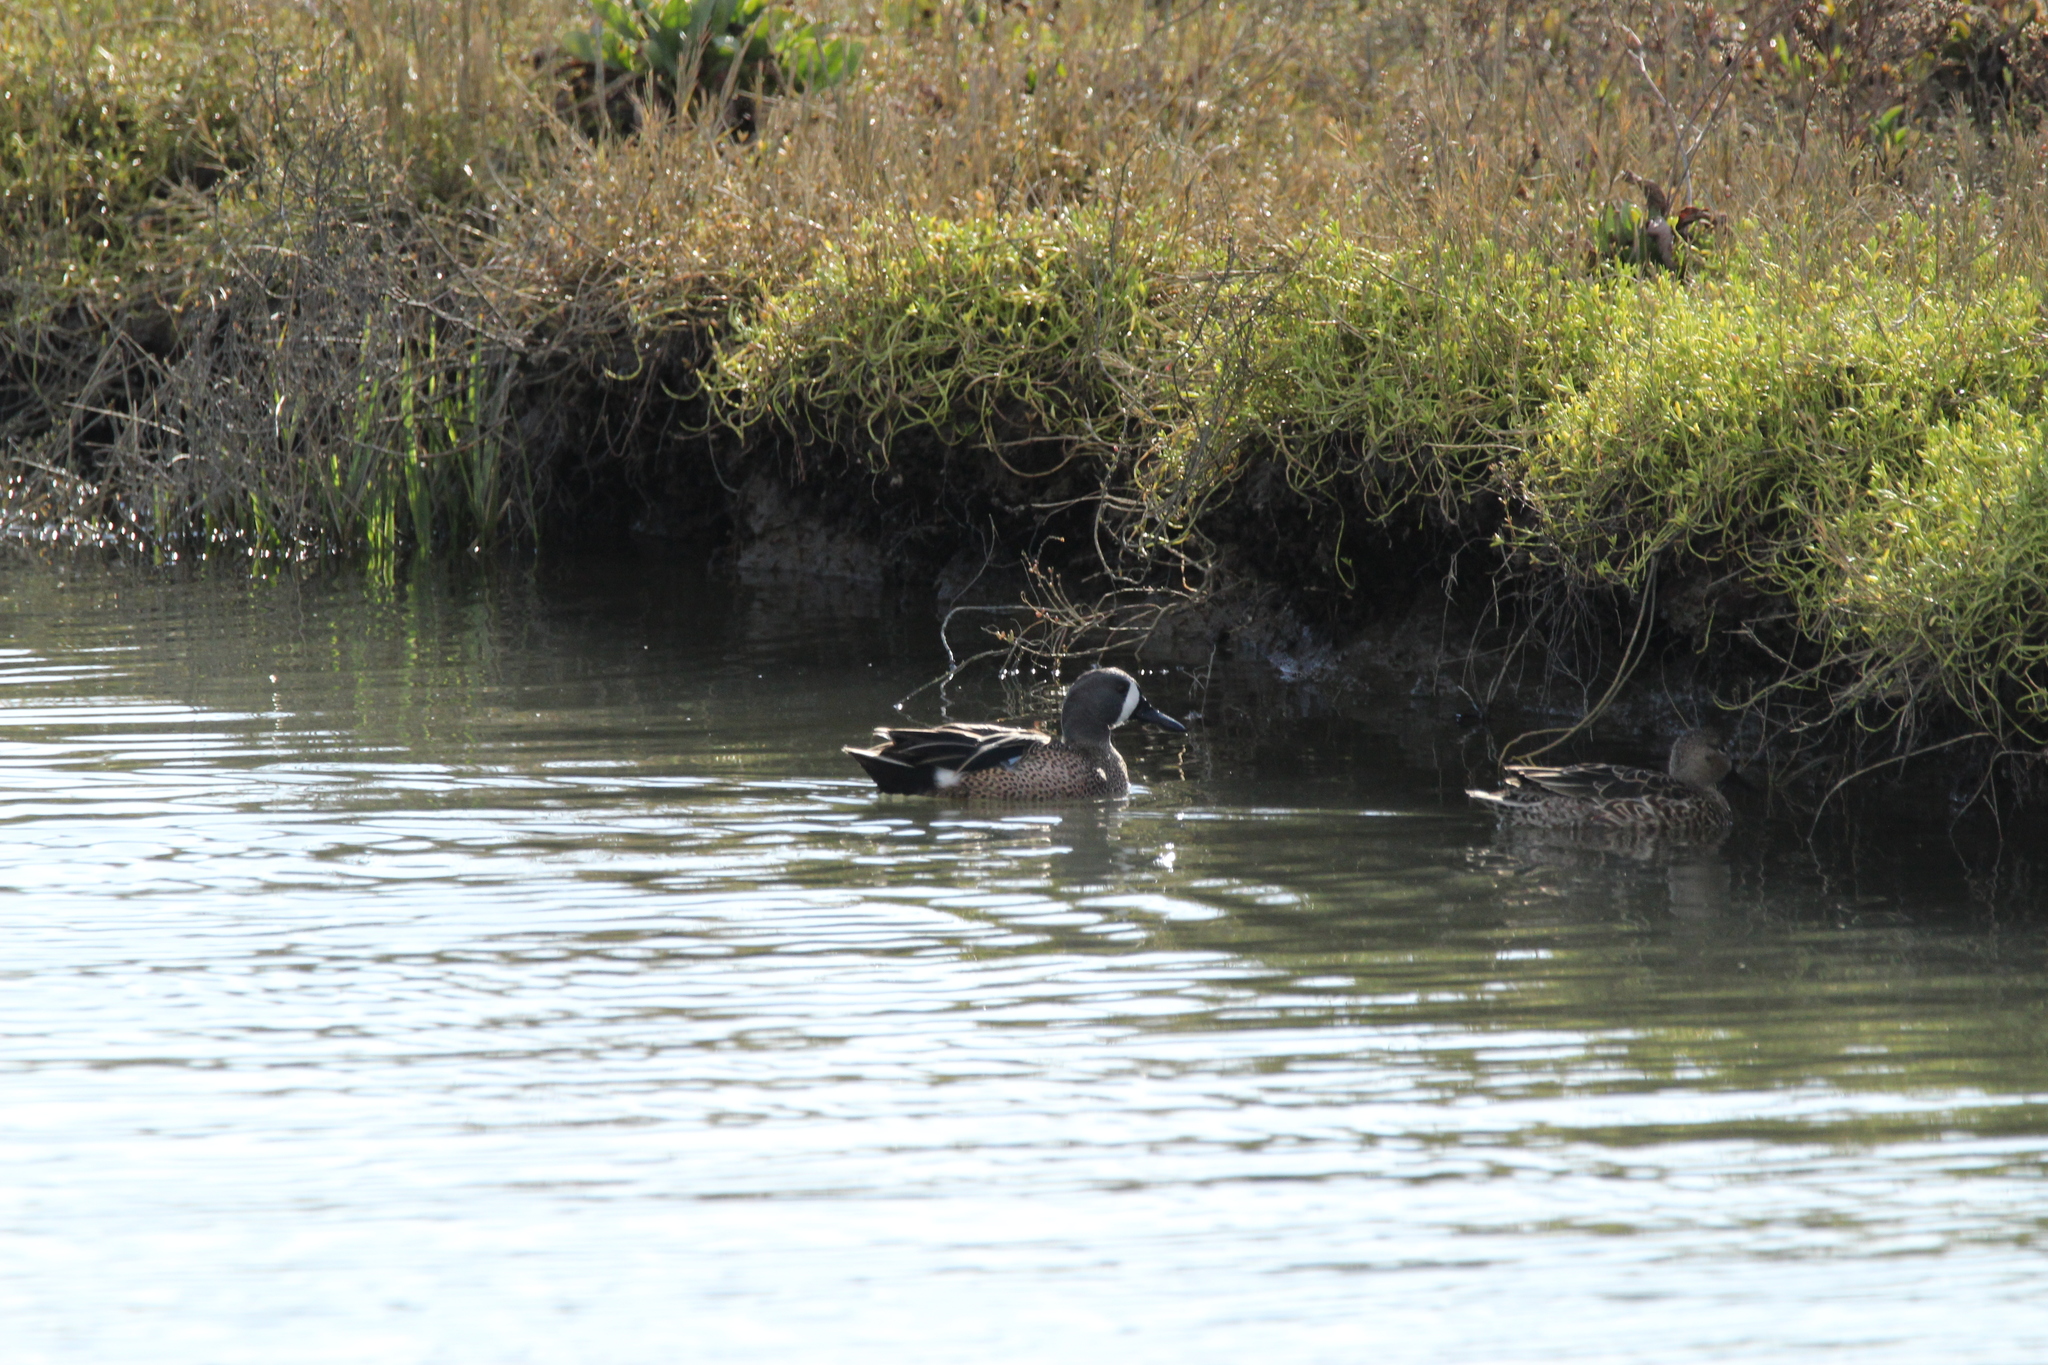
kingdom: Animalia
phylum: Chordata
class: Aves
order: Anseriformes
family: Anatidae
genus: Spatula
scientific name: Spatula discors
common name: Blue-winged teal
